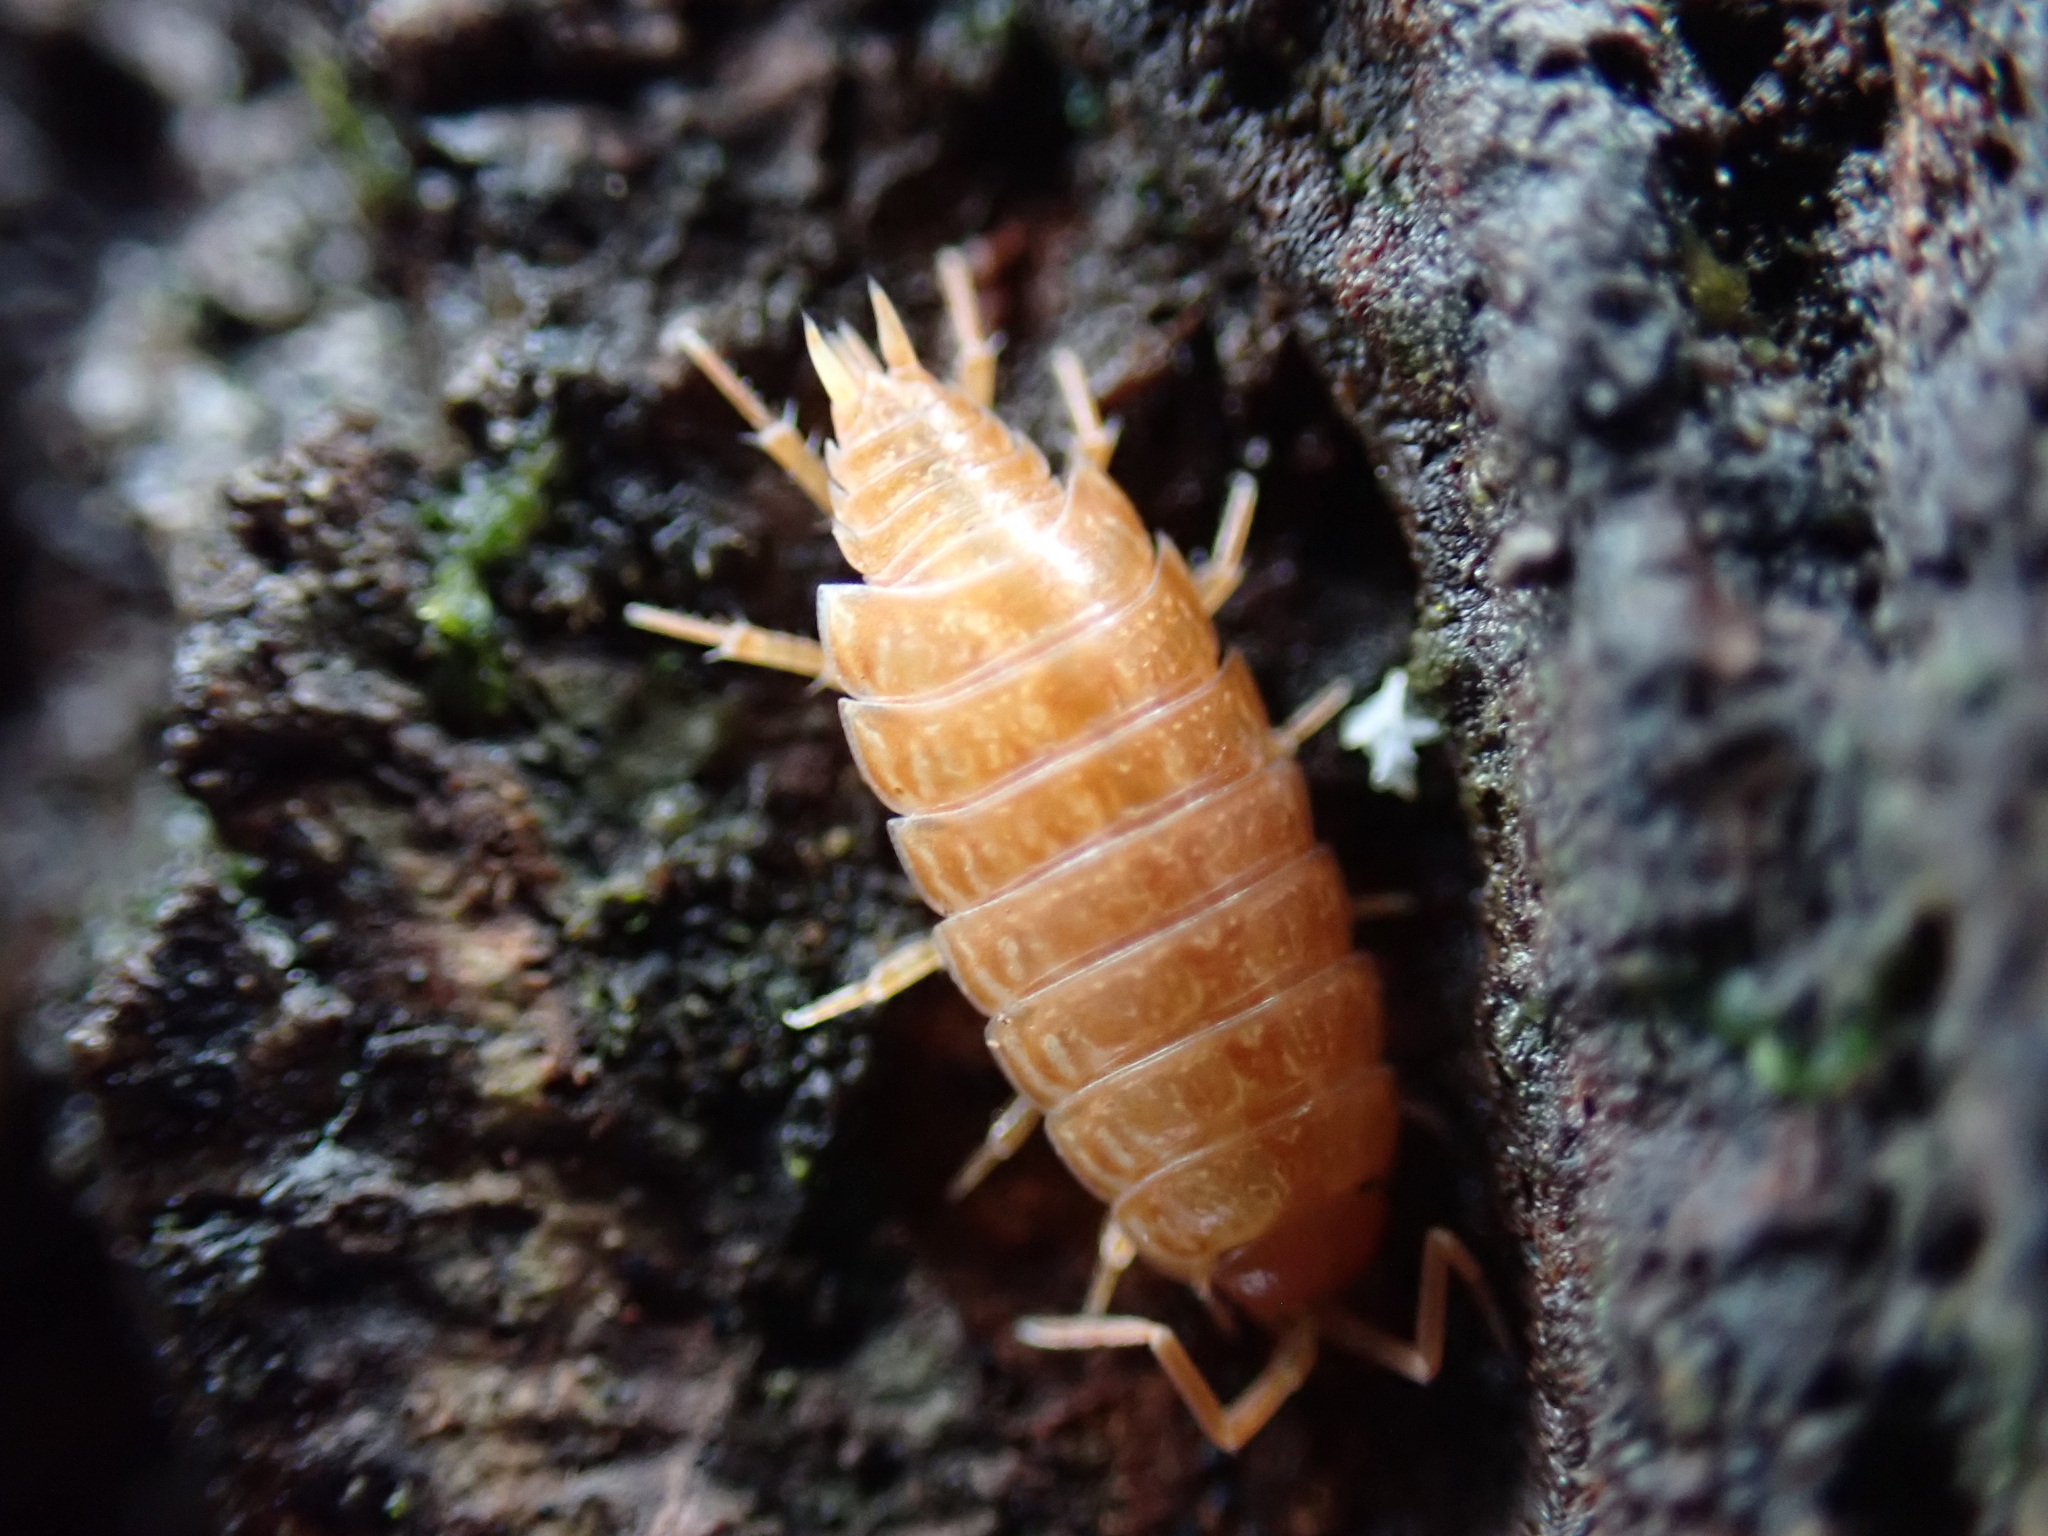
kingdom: Animalia
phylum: Arthropoda
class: Malacostraca
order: Isopoda
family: Philosciidae
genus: Philoscia
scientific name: Philoscia muscorum
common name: Common striped woodlouse
